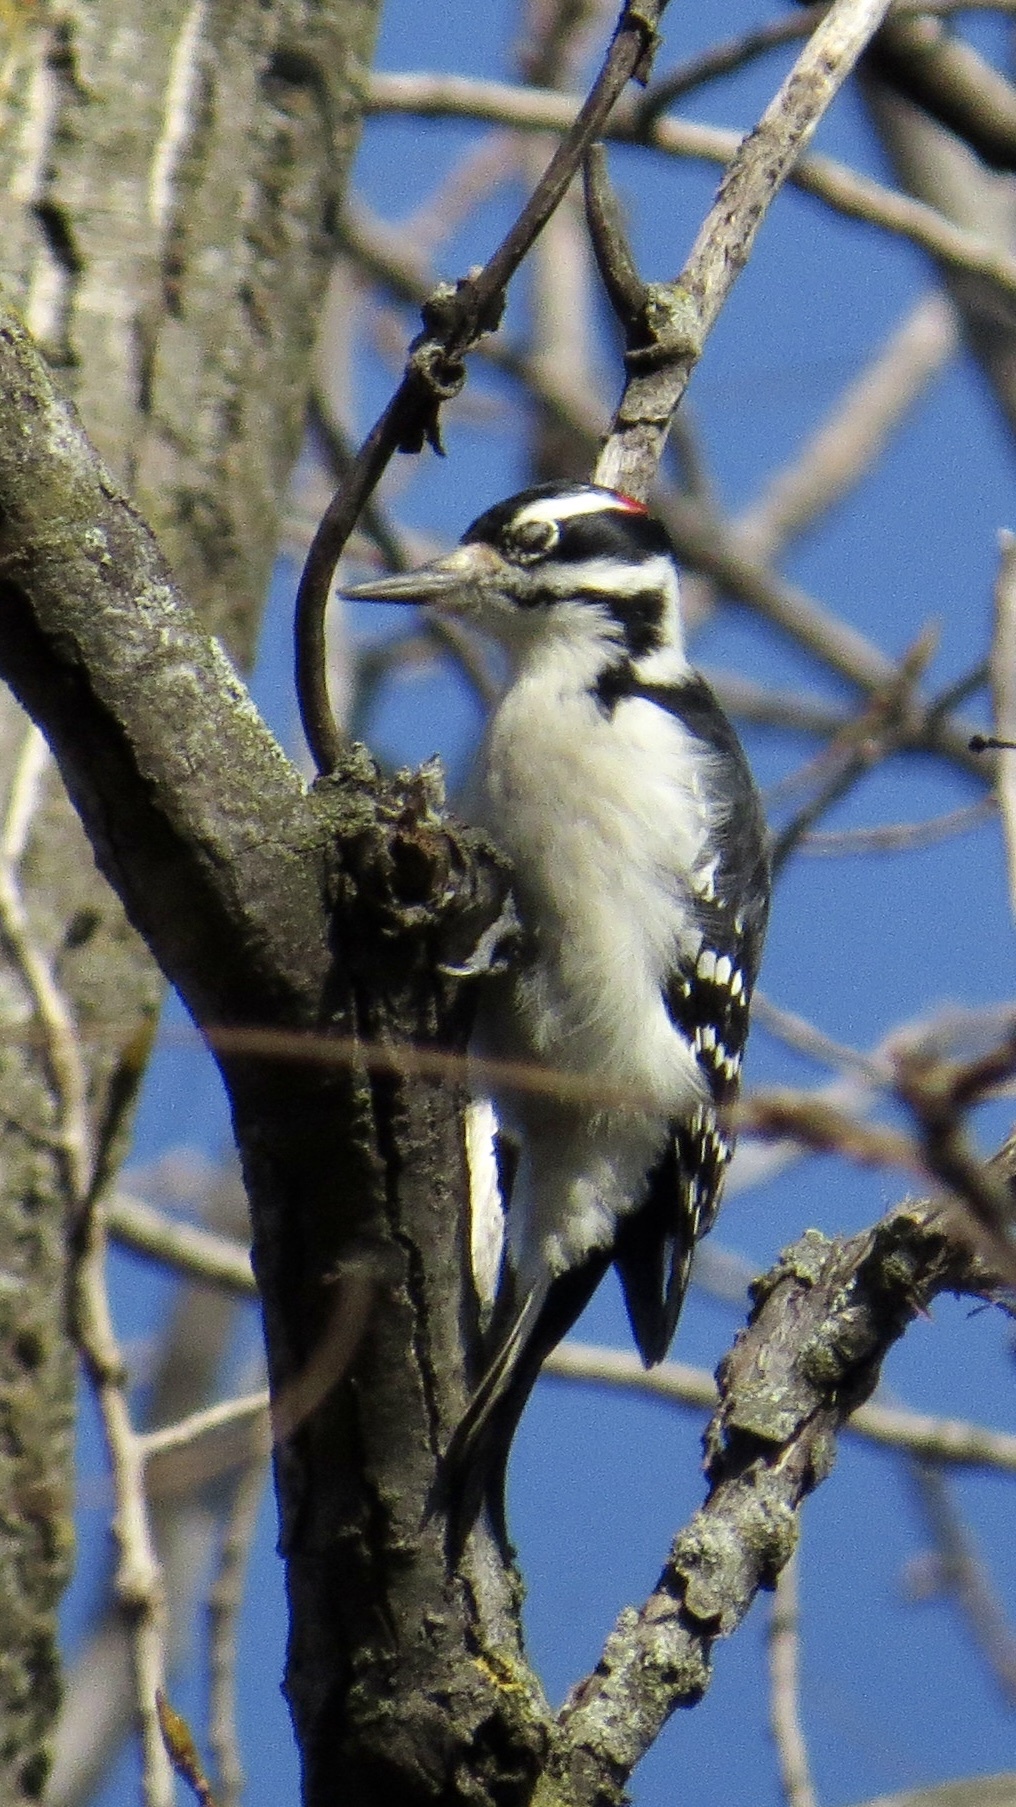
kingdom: Animalia
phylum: Chordata
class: Aves
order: Piciformes
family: Picidae
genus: Leuconotopicus
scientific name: Leuconotopicus villosus
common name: Hairy woodpecker
